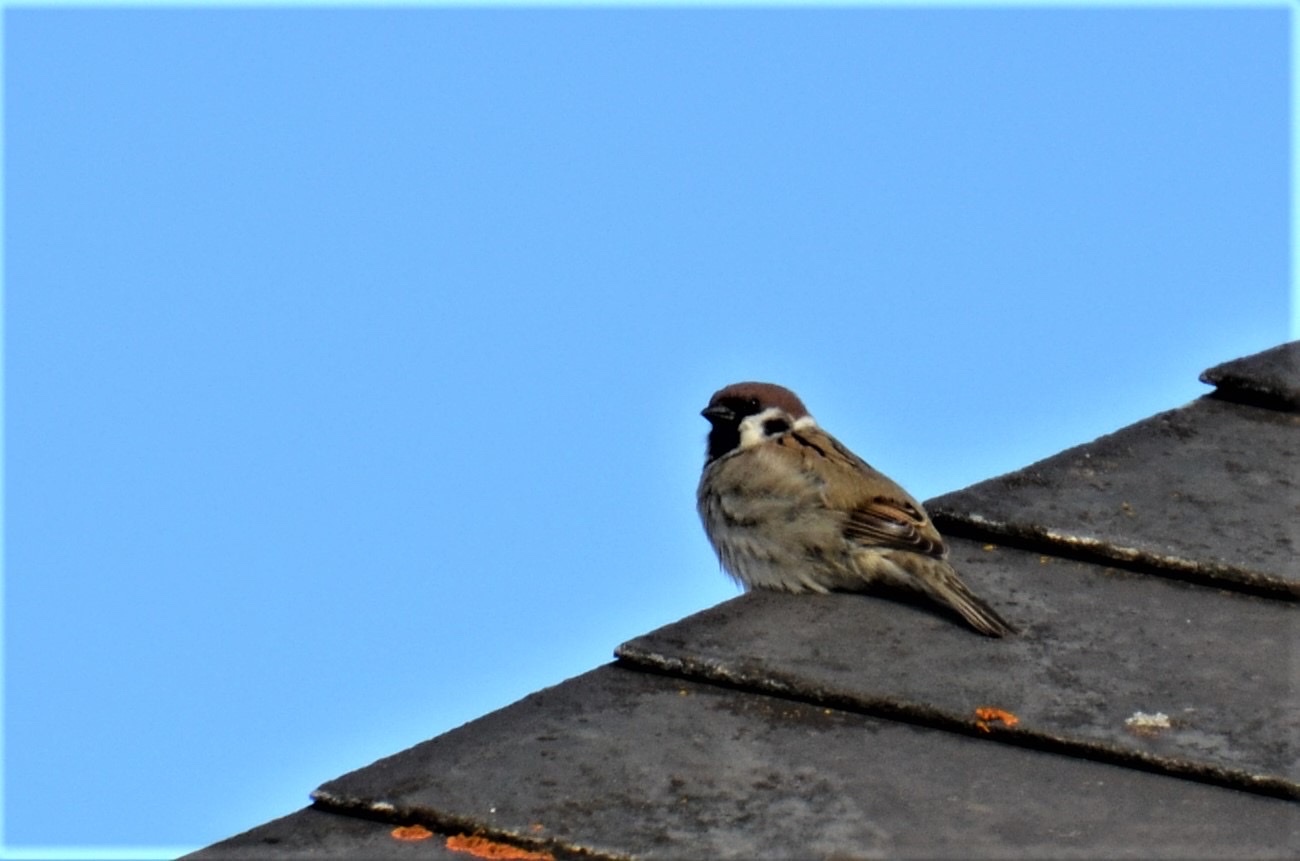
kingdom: Animalia
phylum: Chordata
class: Aves
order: Passeriformes
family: Passeridae
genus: Passer
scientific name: Passer montanus
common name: Eurasian tree sparrow
